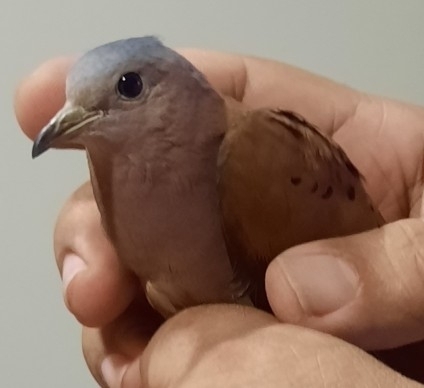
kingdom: Animalia
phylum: Chordata
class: Aves
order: Columbiformes
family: Columbidae
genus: Columbina
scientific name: Columbina talpacoti
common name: Ruddy ground dove
